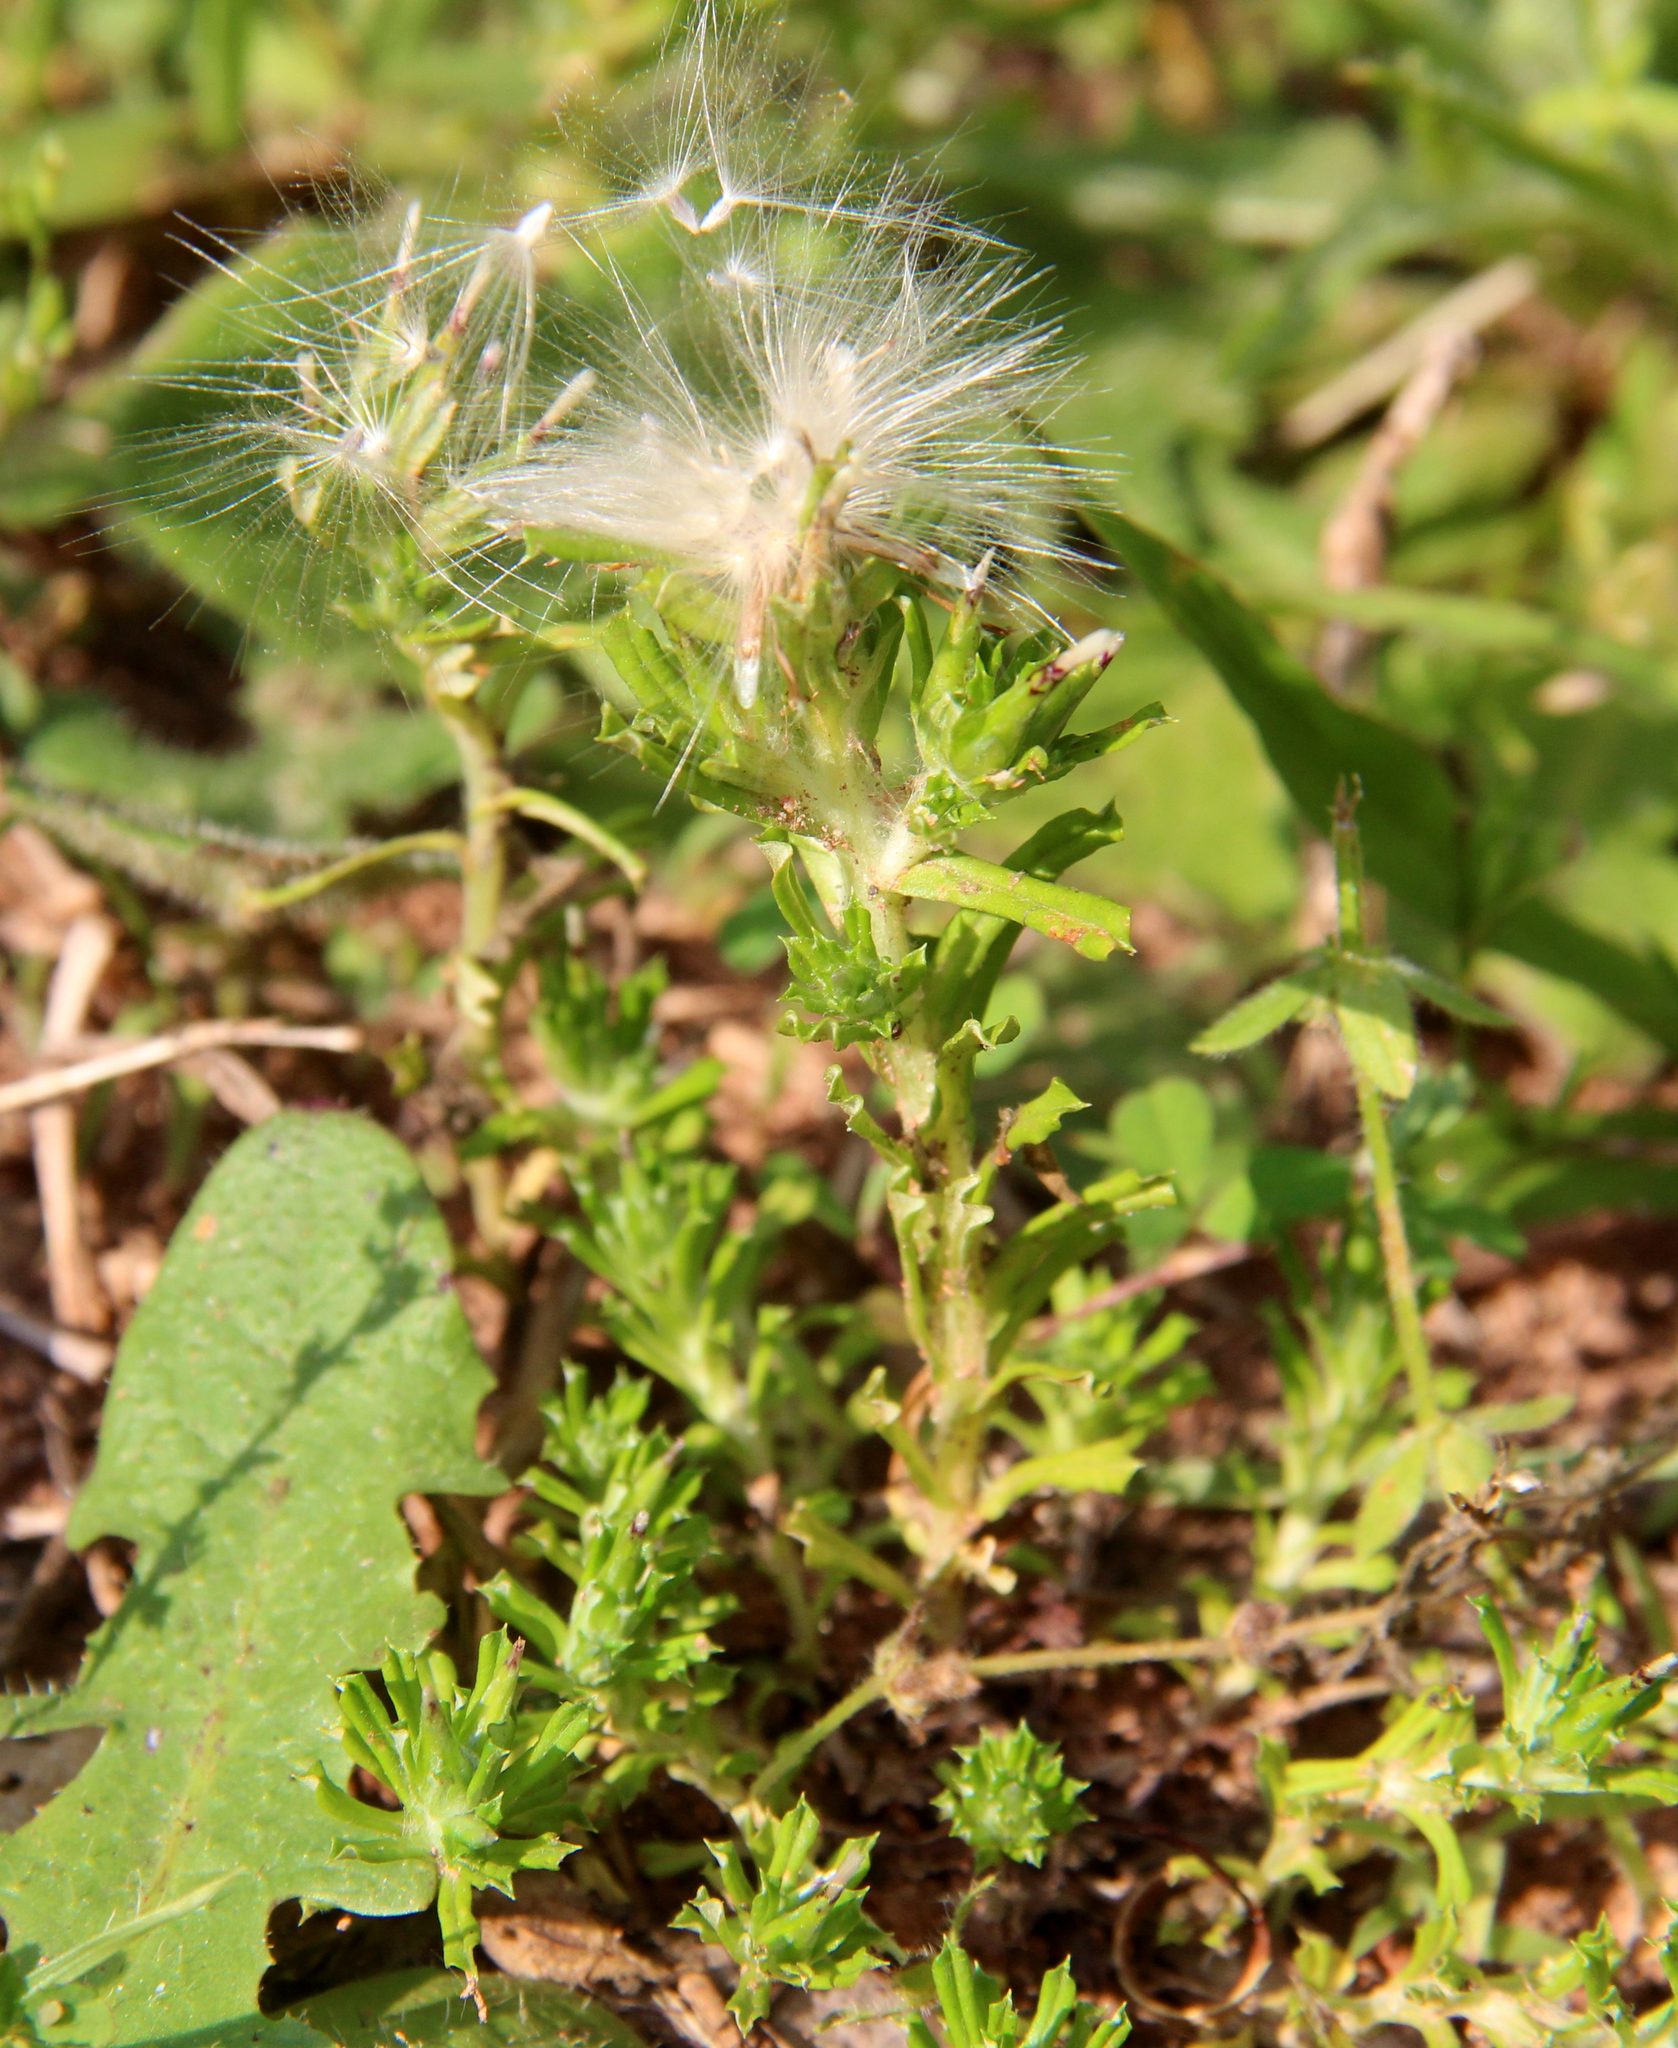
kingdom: Plantae
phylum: Tracheophyta
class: Magnoliopsida
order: Asterales
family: Asteraceae
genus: Facelis
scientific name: Facelis retusa
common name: Annual trampweed
